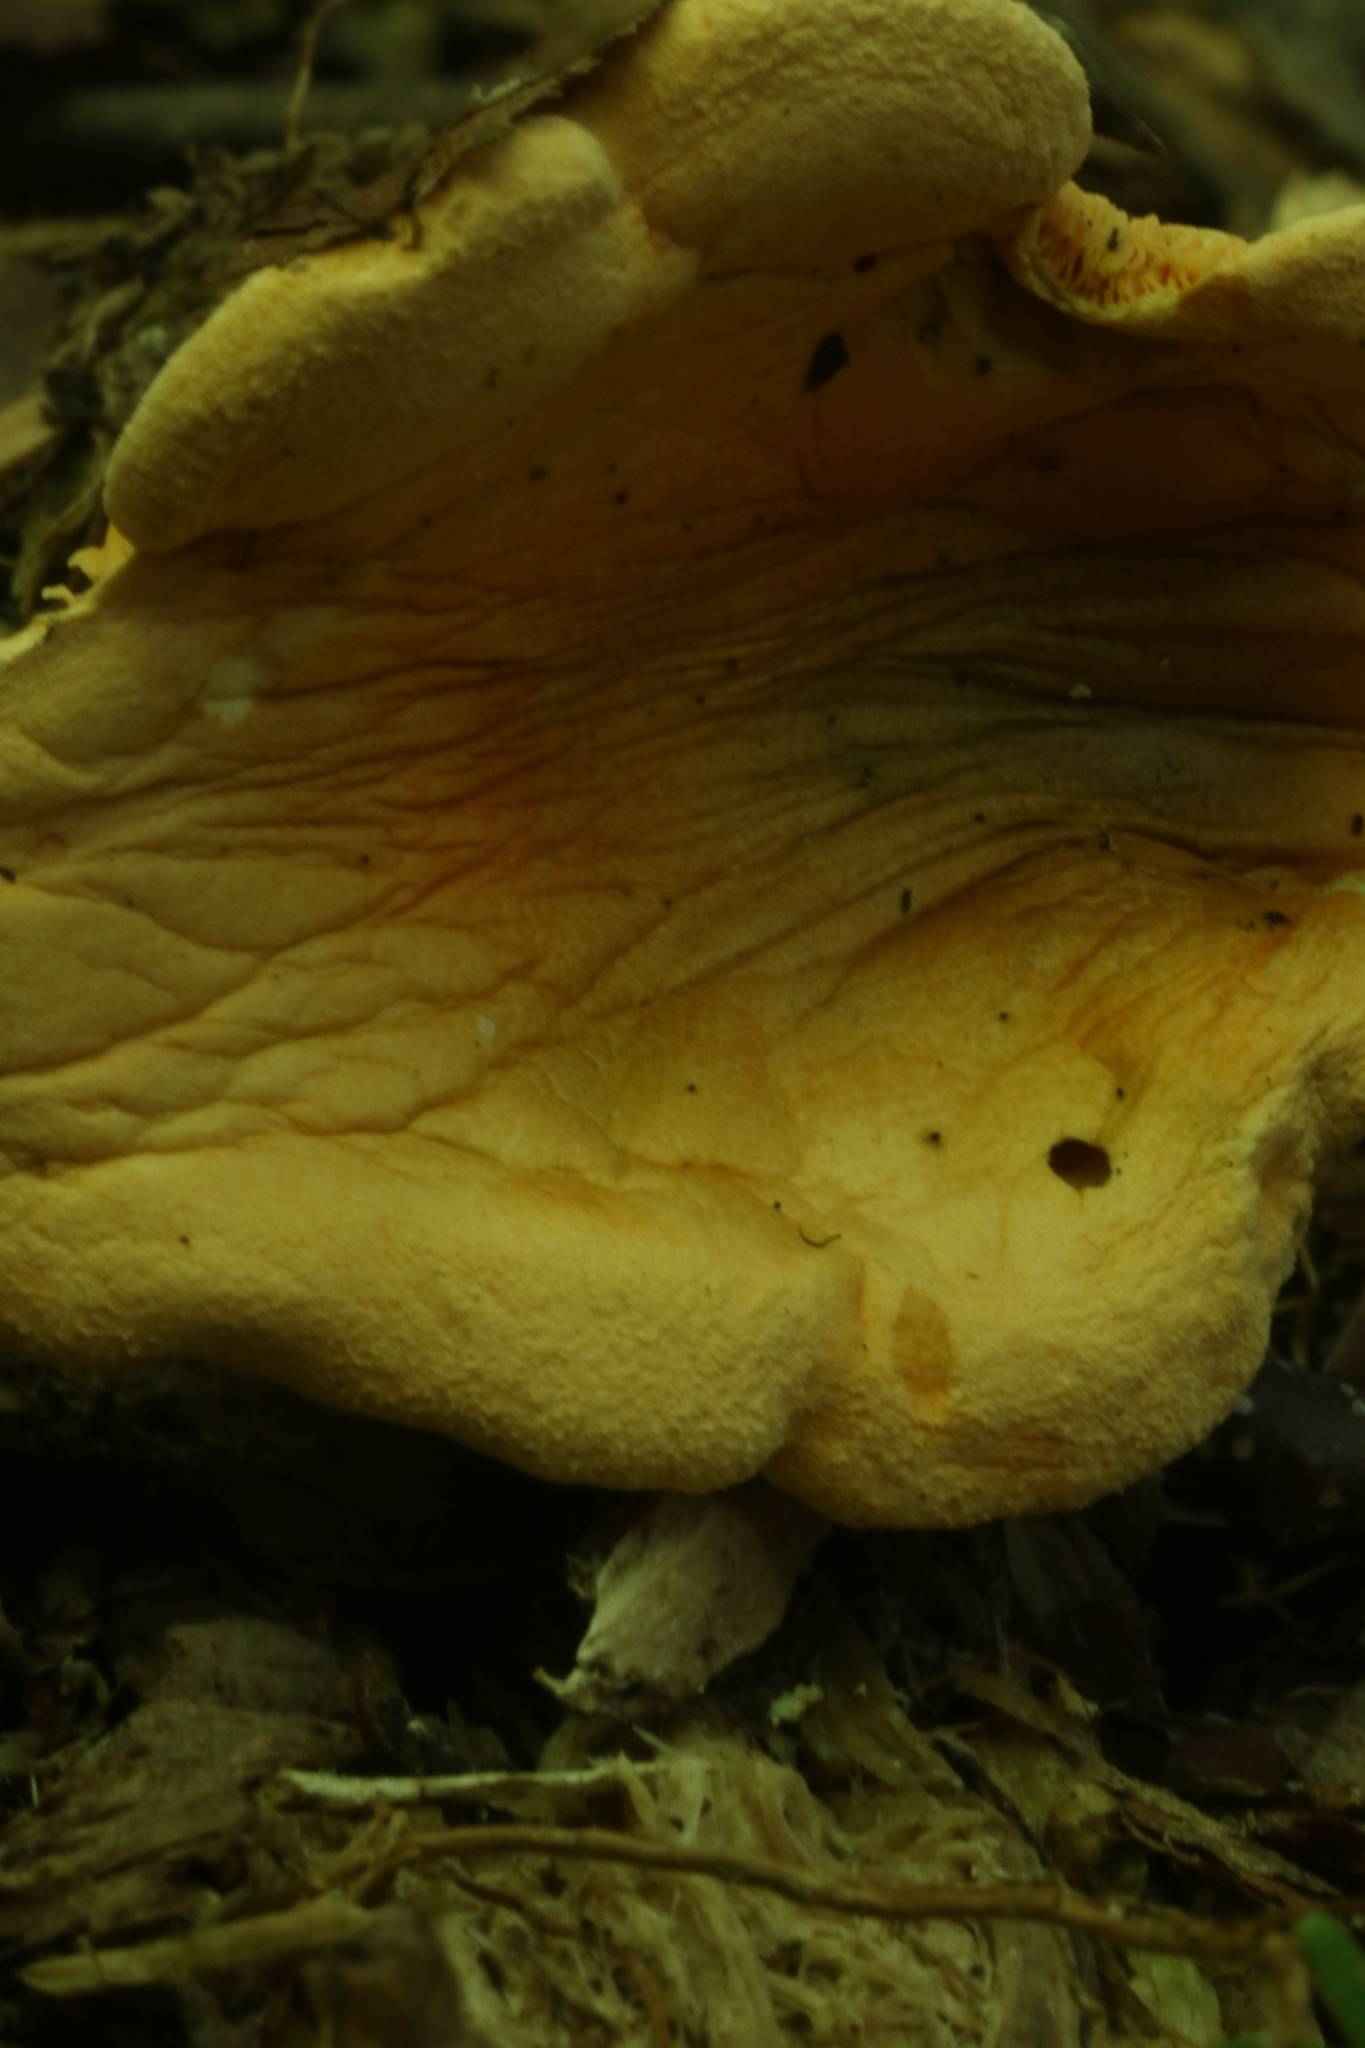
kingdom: Fungi
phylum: Basidiomycota
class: Agaricomycetes
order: Boletales
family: Hygrophoropsidaceae
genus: Hygrophoropsis
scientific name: Hygrophoropsis aurantiaca
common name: False chanterelle
